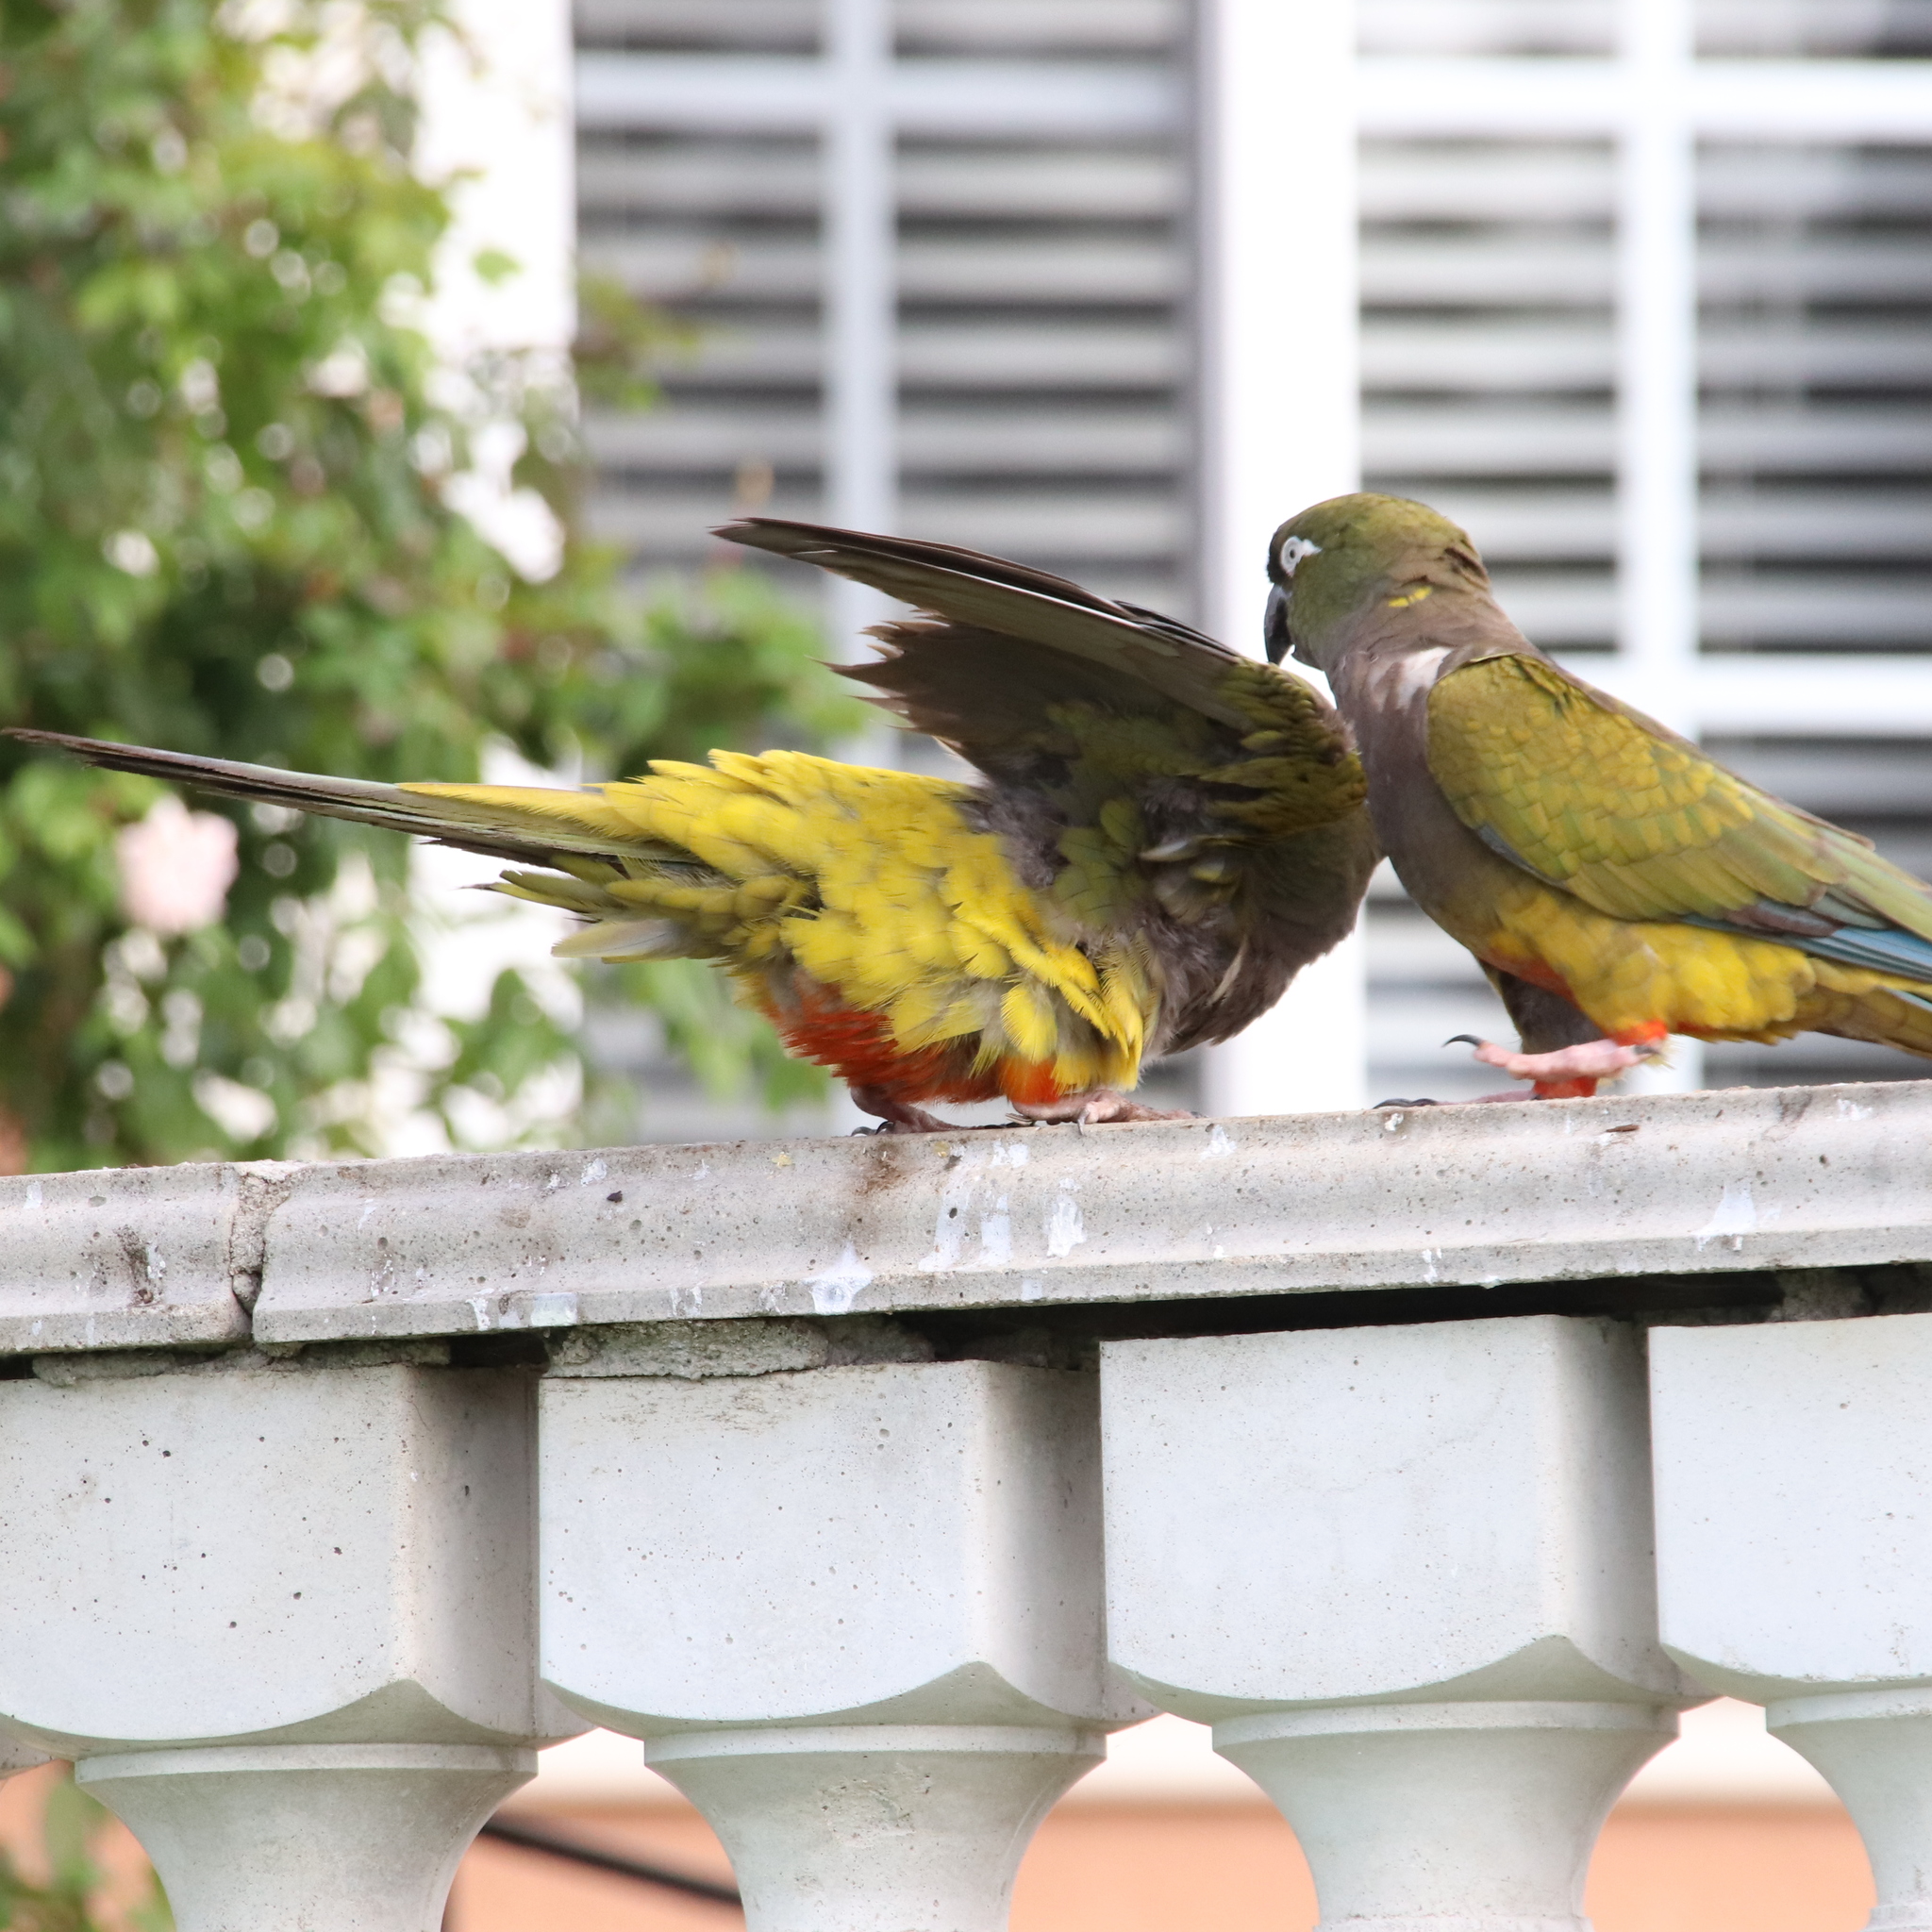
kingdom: Animalia
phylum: Chordata
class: Aves
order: Psittaciformes
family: Psittacidae
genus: Cyanoliseus
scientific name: Cyanoliseus patagonus
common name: Burrowing parrot
